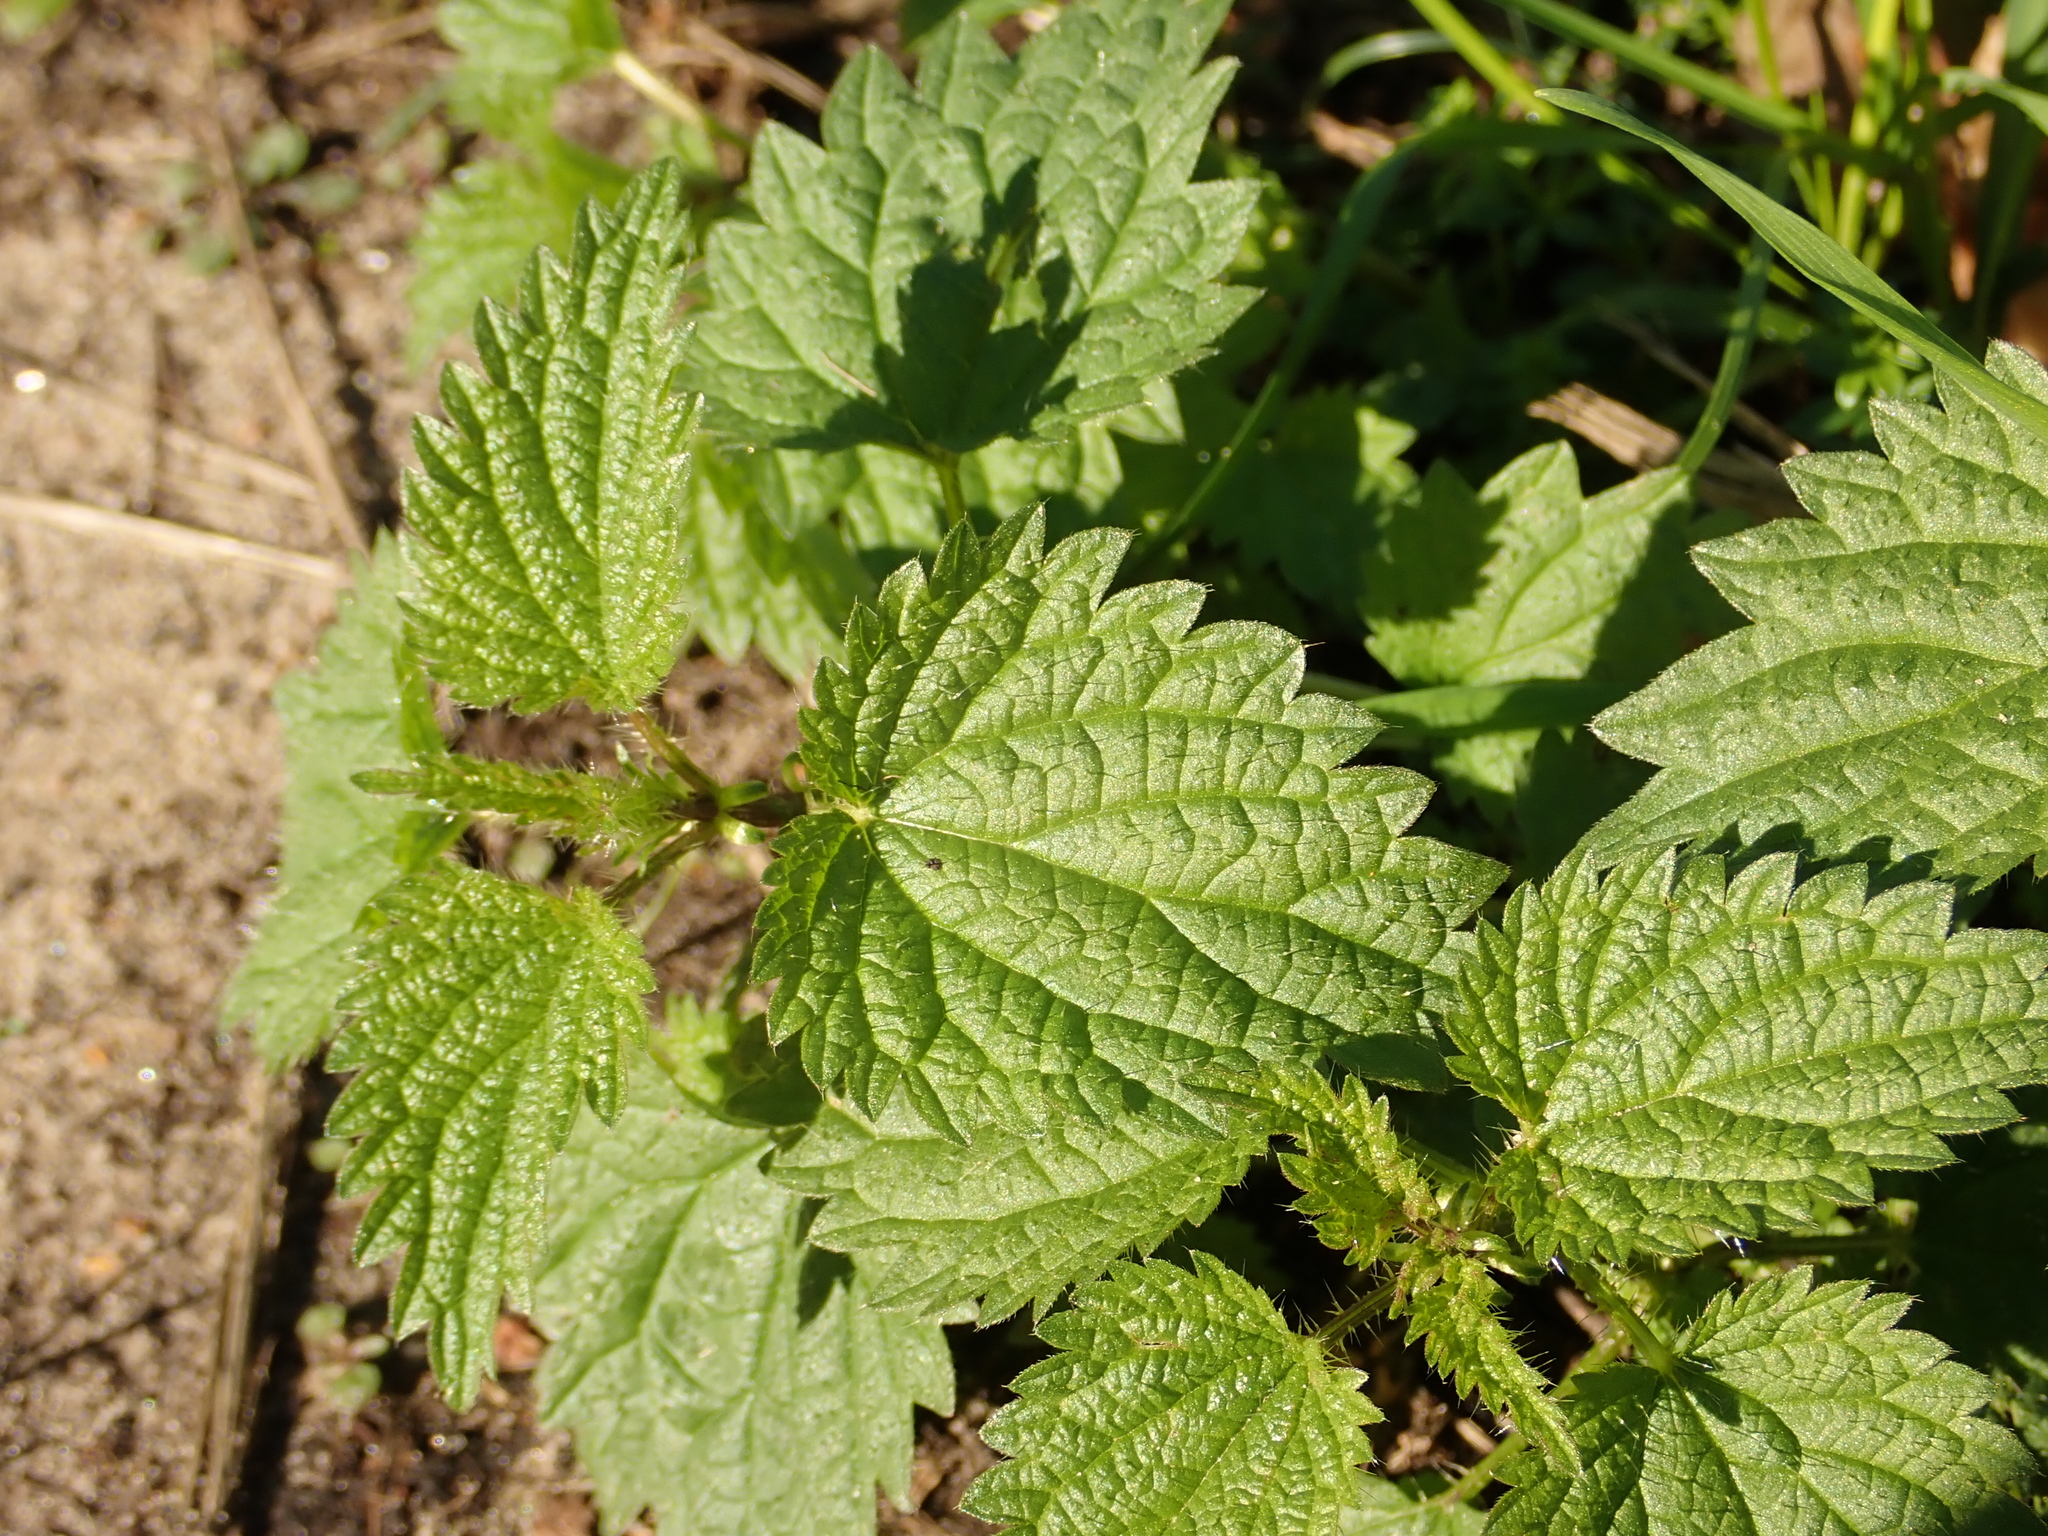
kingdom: Plantae
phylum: Tracheophyta
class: Magnoliopsida
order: Rosales
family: Urticaceae
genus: Urtica
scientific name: Urtica dioica
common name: Common nettle
